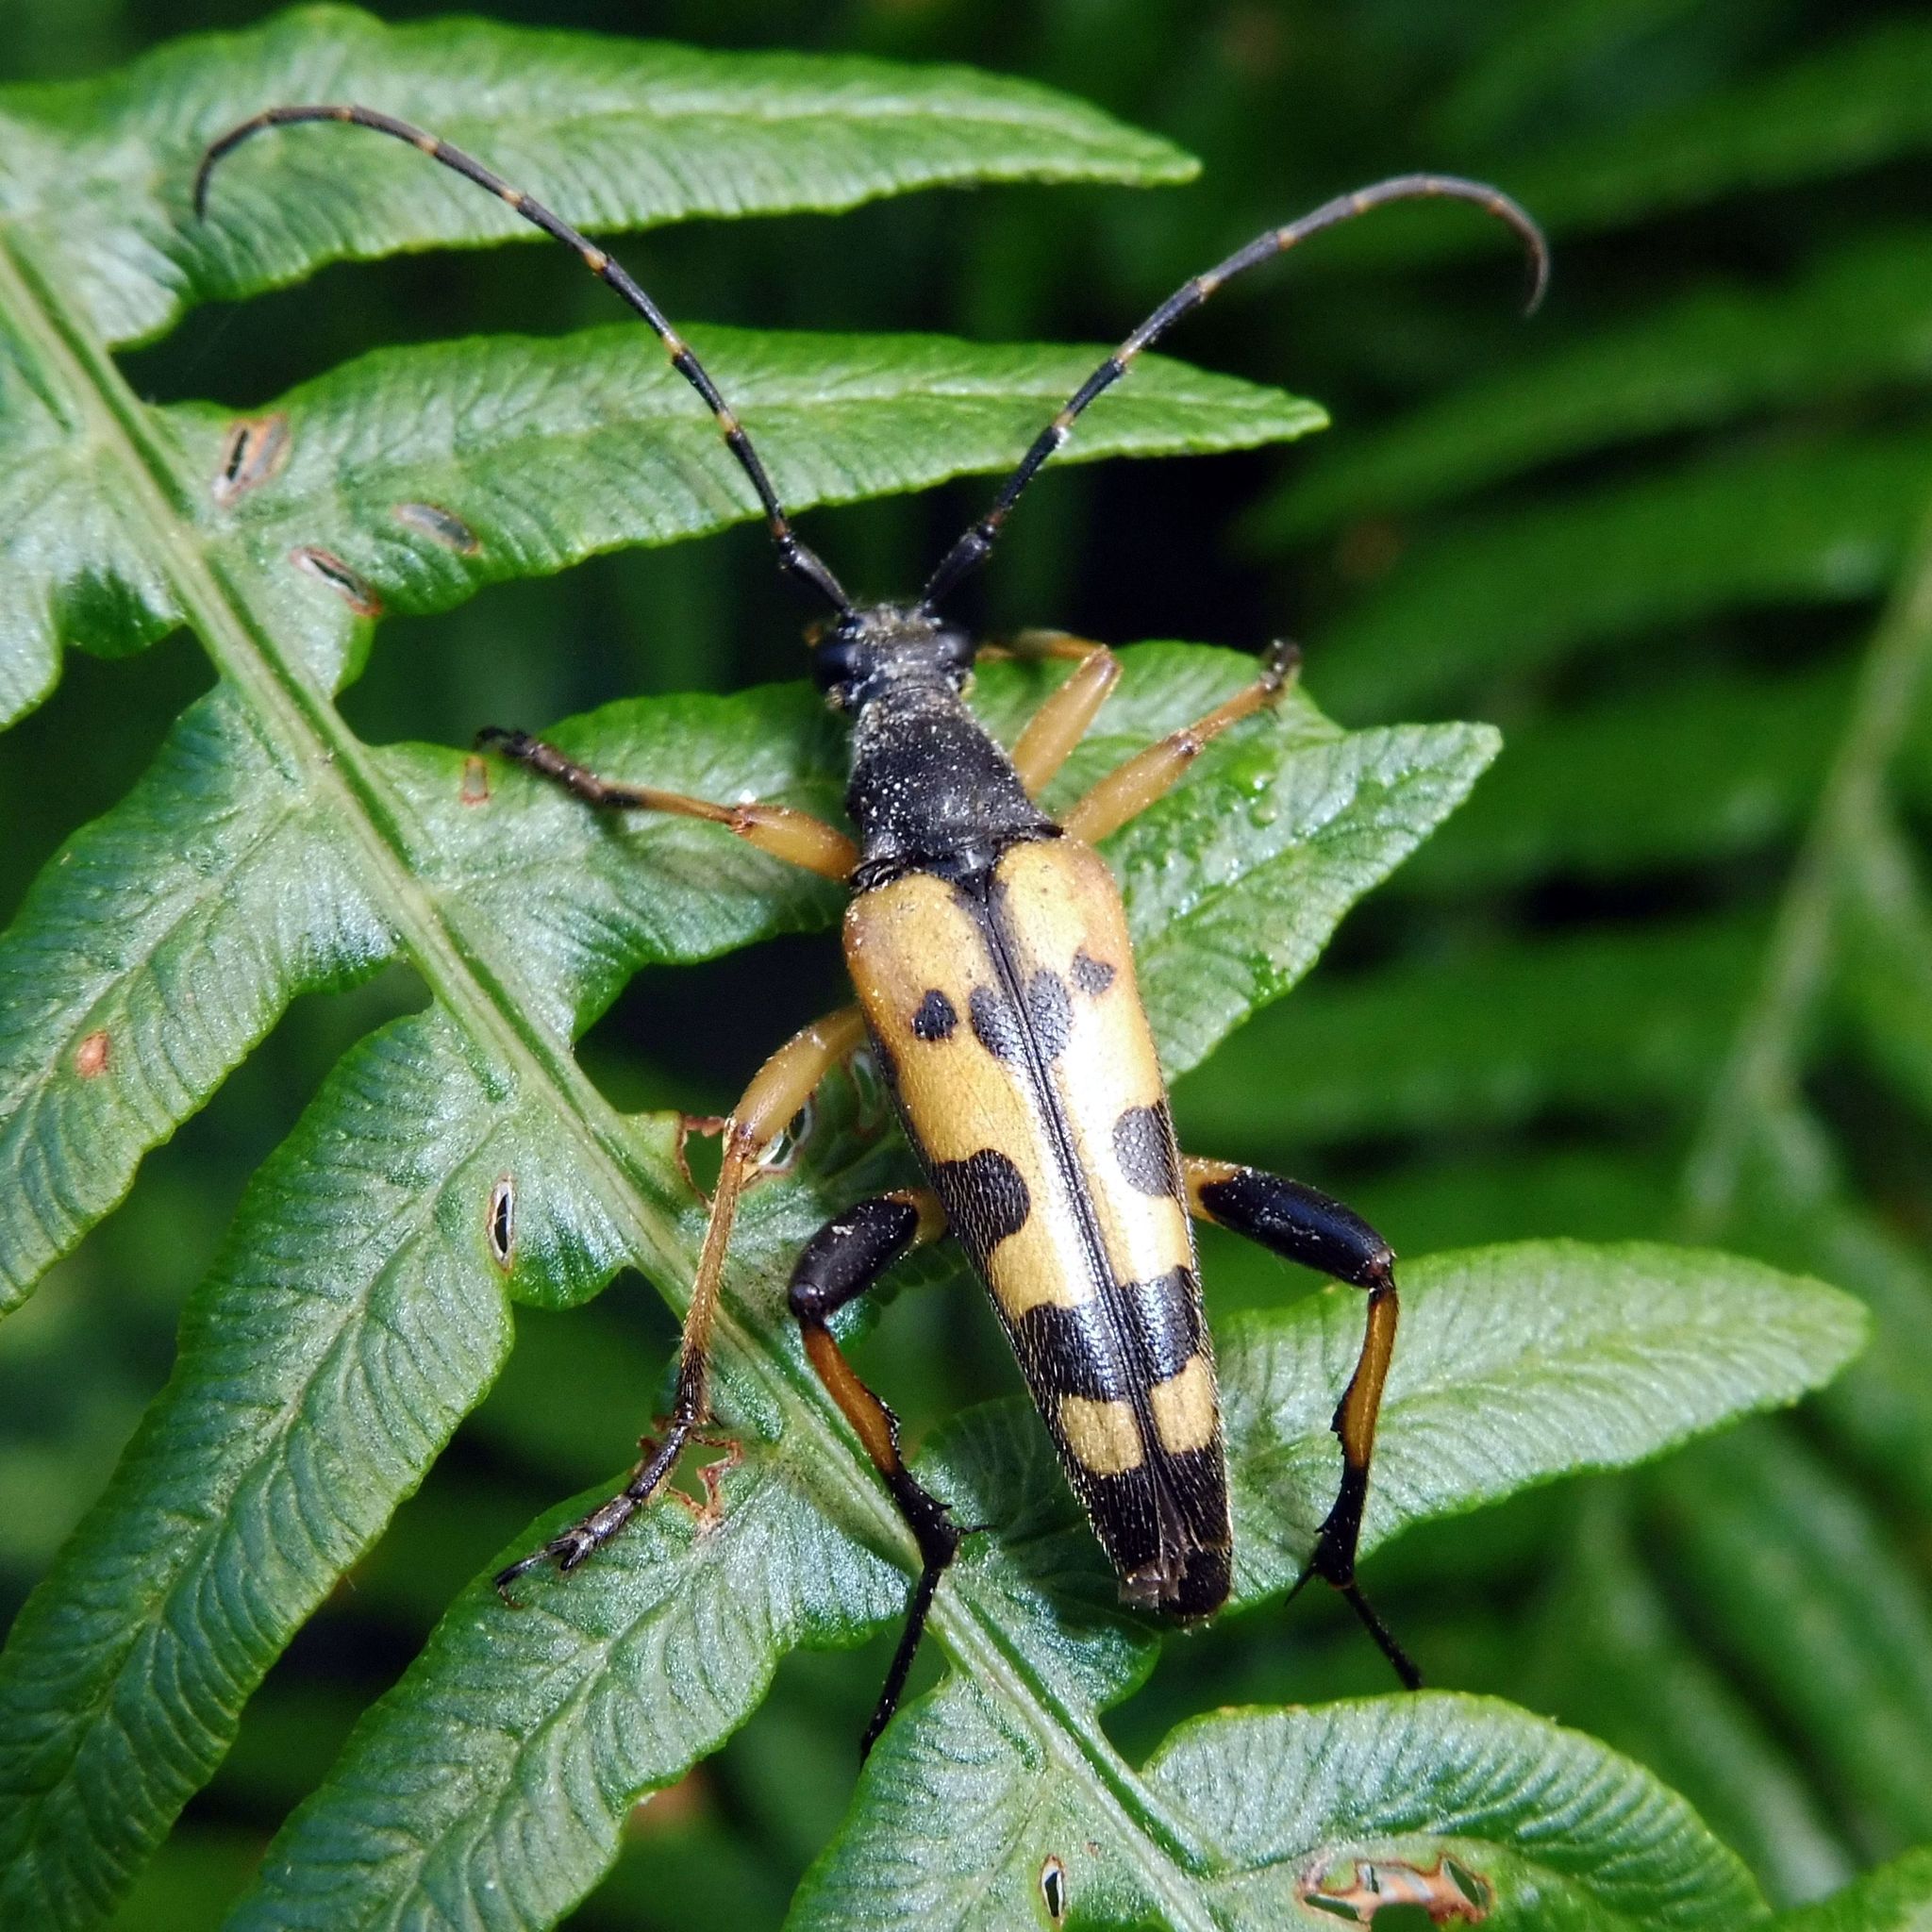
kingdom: Animalia
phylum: Arthropoda
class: Insecta
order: Coleoptera
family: Cerambycidae
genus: Rutpela
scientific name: Rutpela maculata
